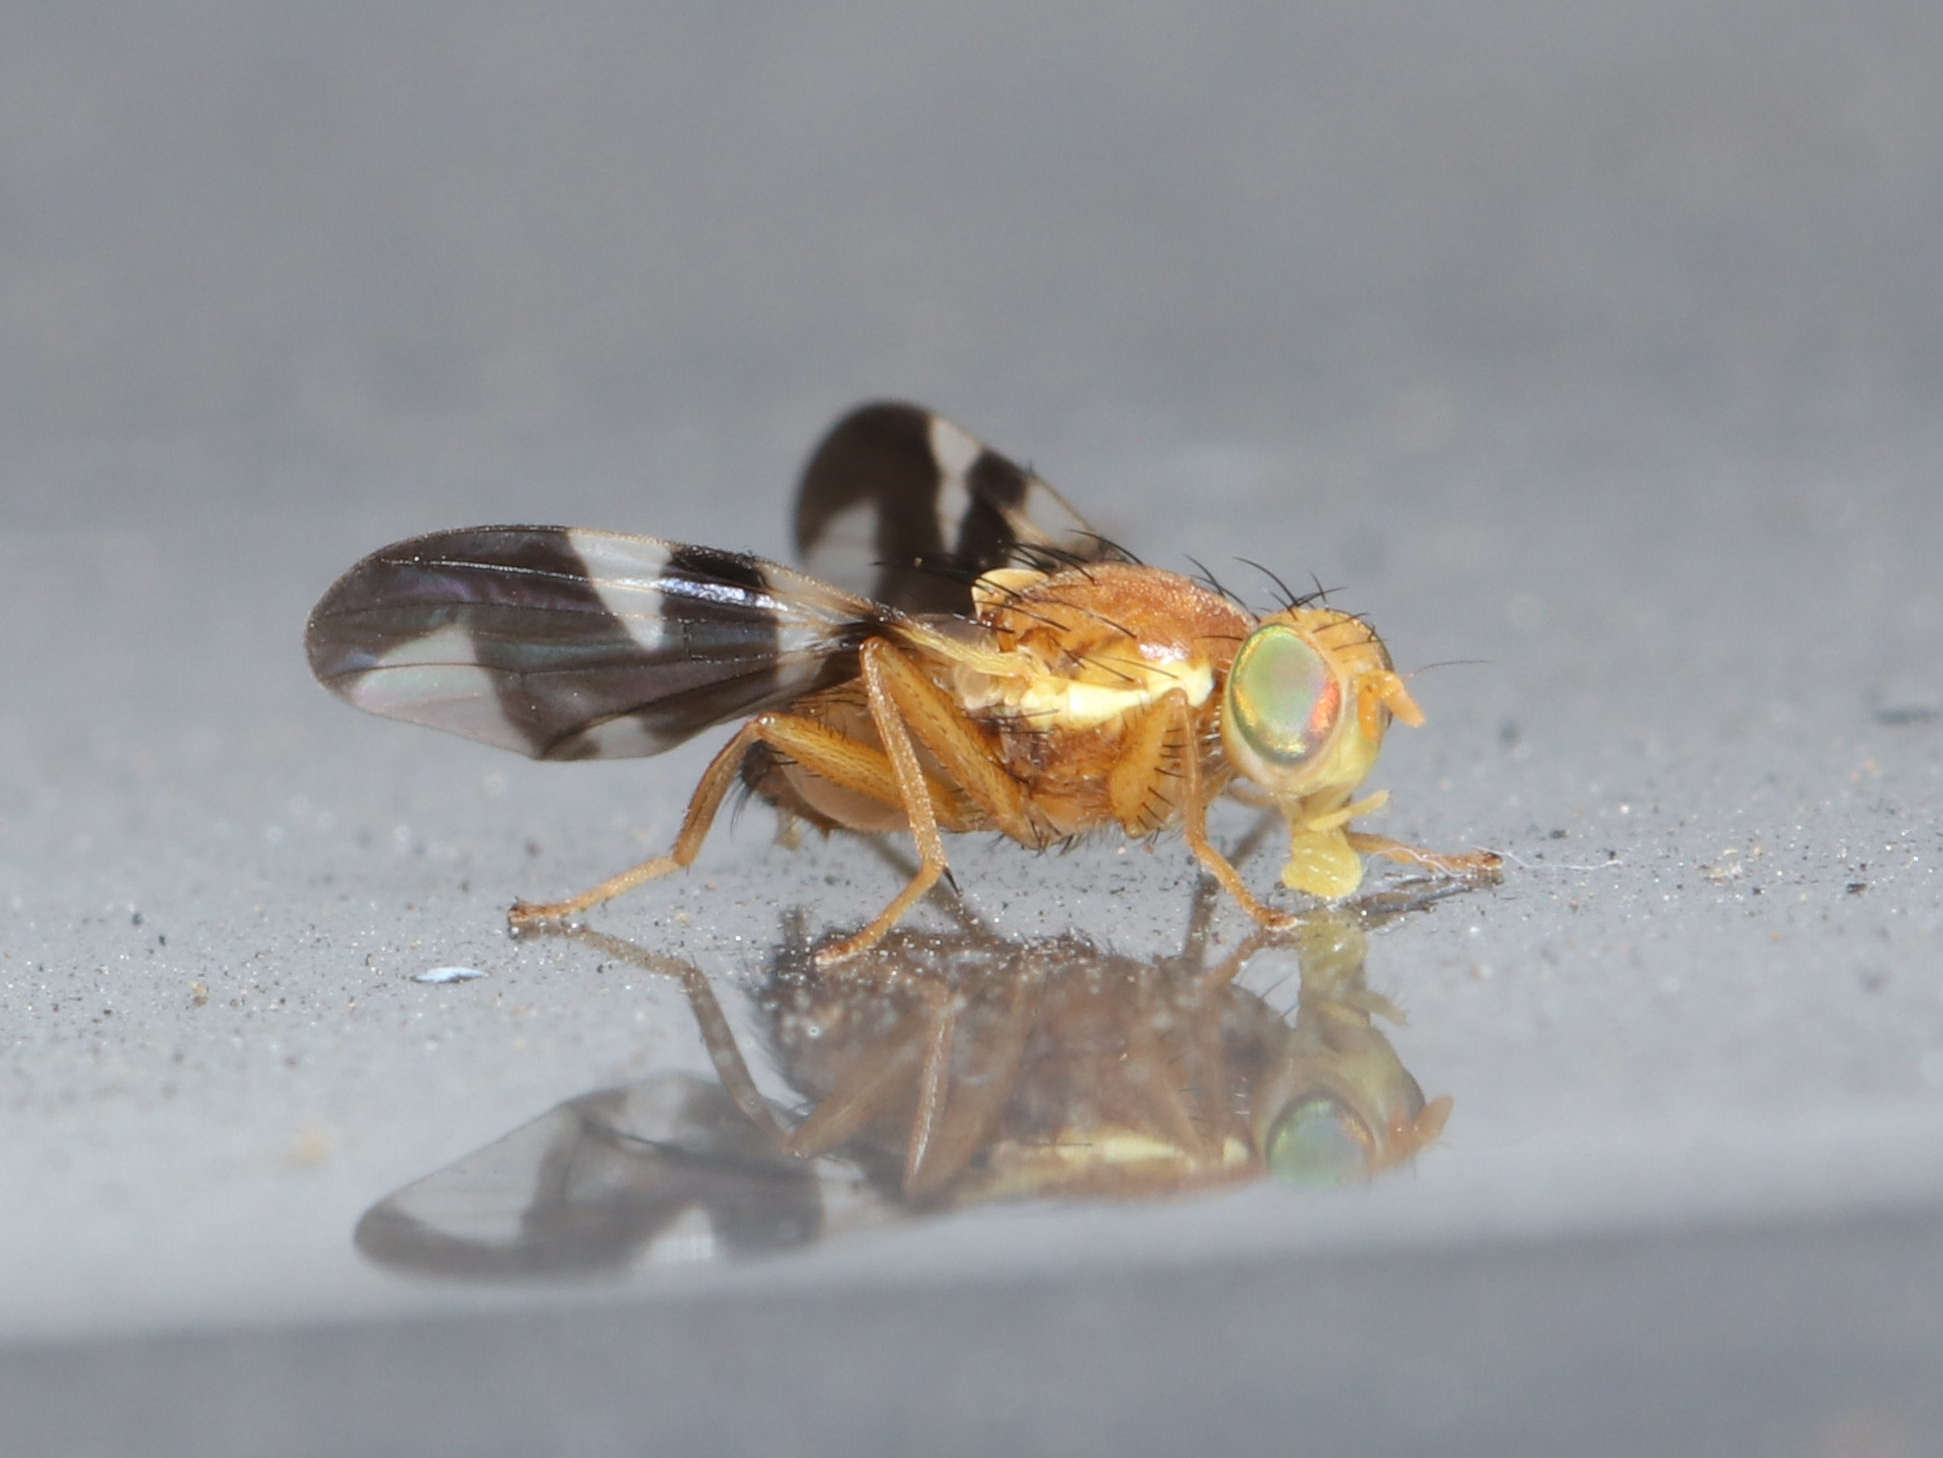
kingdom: Animalia
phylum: Arthropoda
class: Insecta
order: Diptera
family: Tephritidae
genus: Rhagoletis
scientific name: Rhagoletis suavis
